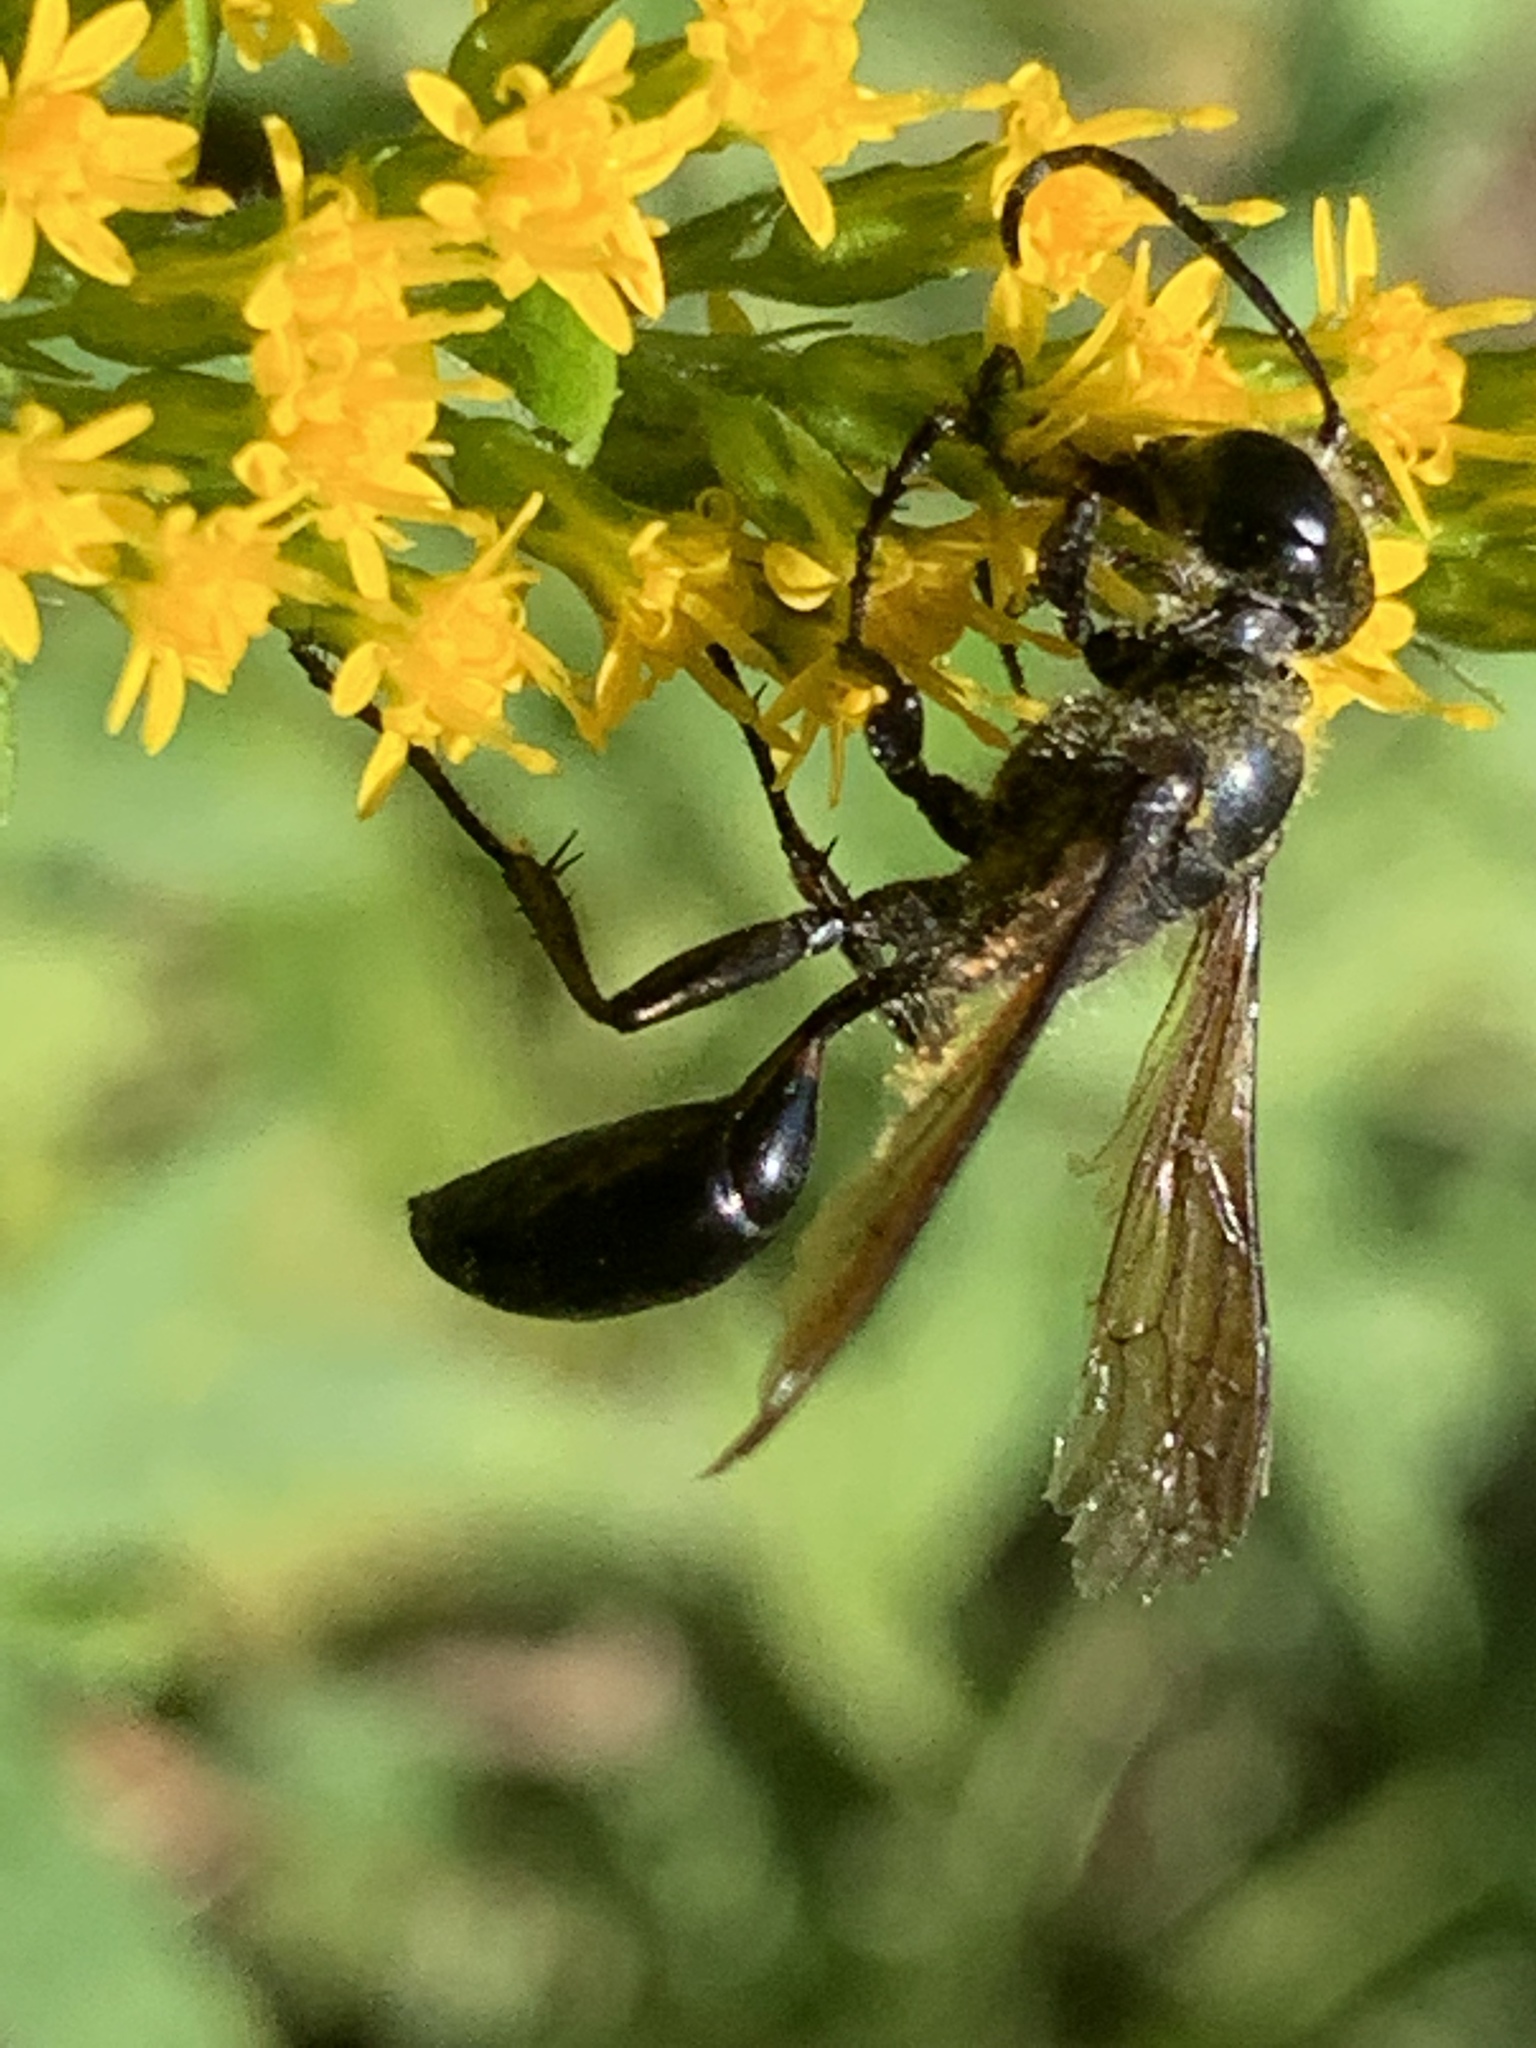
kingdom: Animalia
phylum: Arthropoda
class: Insecta
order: Hymenoptera
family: Sphecidae
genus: Isodontia
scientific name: Isodontia mexicana
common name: Mud dauber
